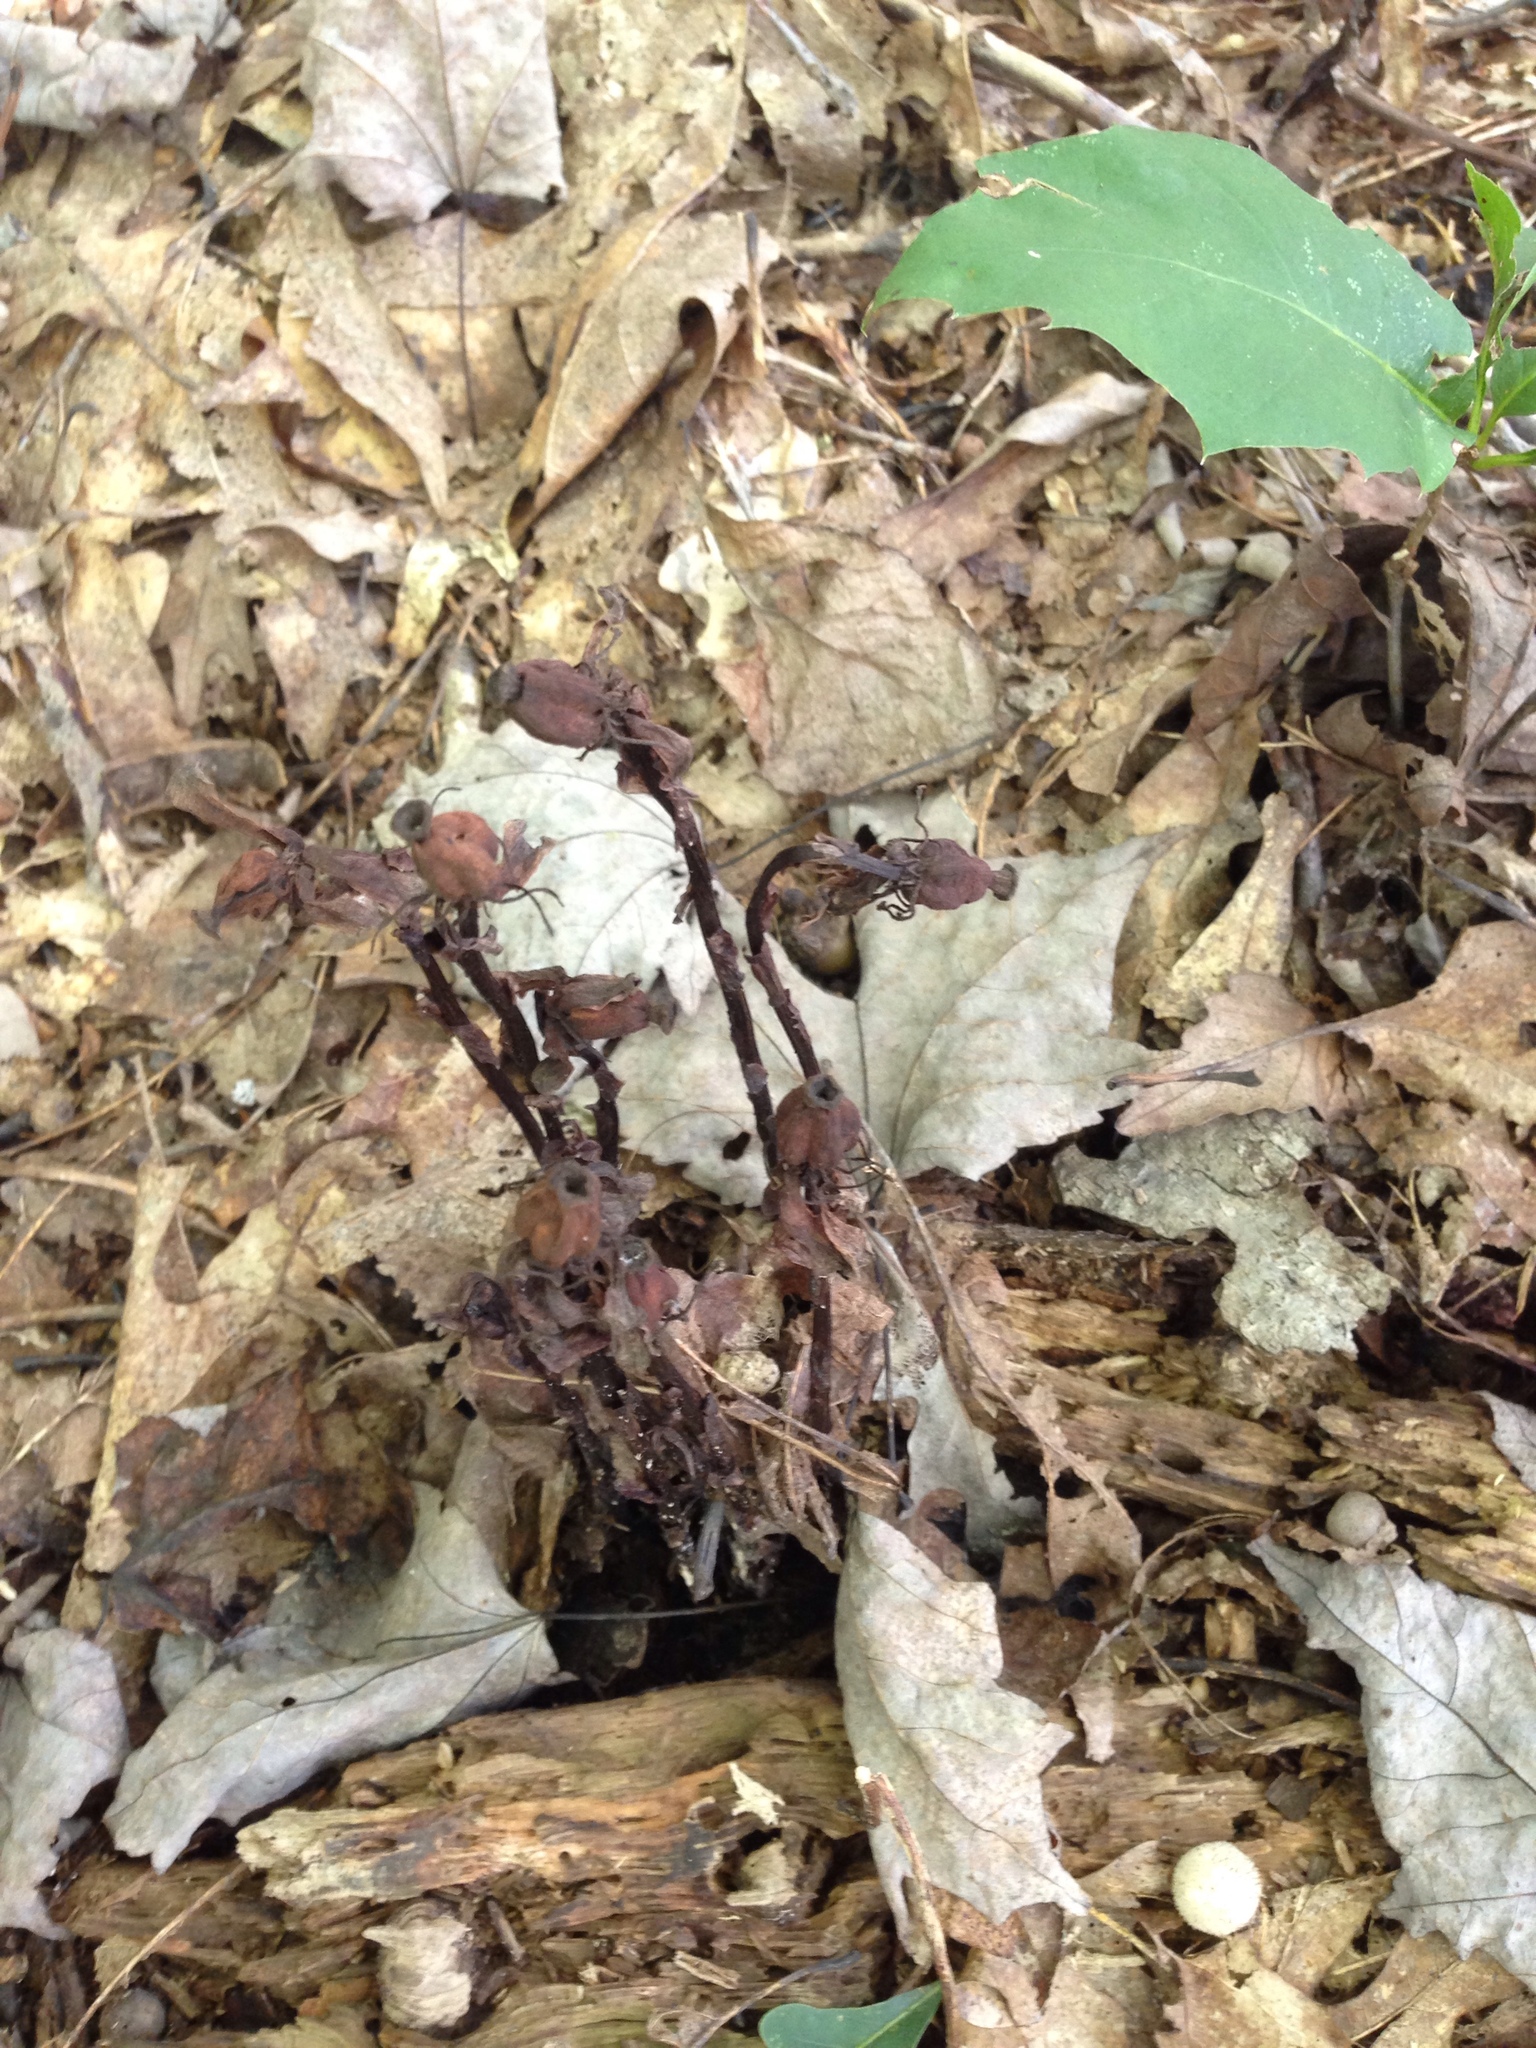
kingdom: Plantae
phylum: Tracheophyta
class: Magnoliopsida
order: Ericales
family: Ericaceae
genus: Monotropa
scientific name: Monotropa uniflora
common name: Convulsion root
